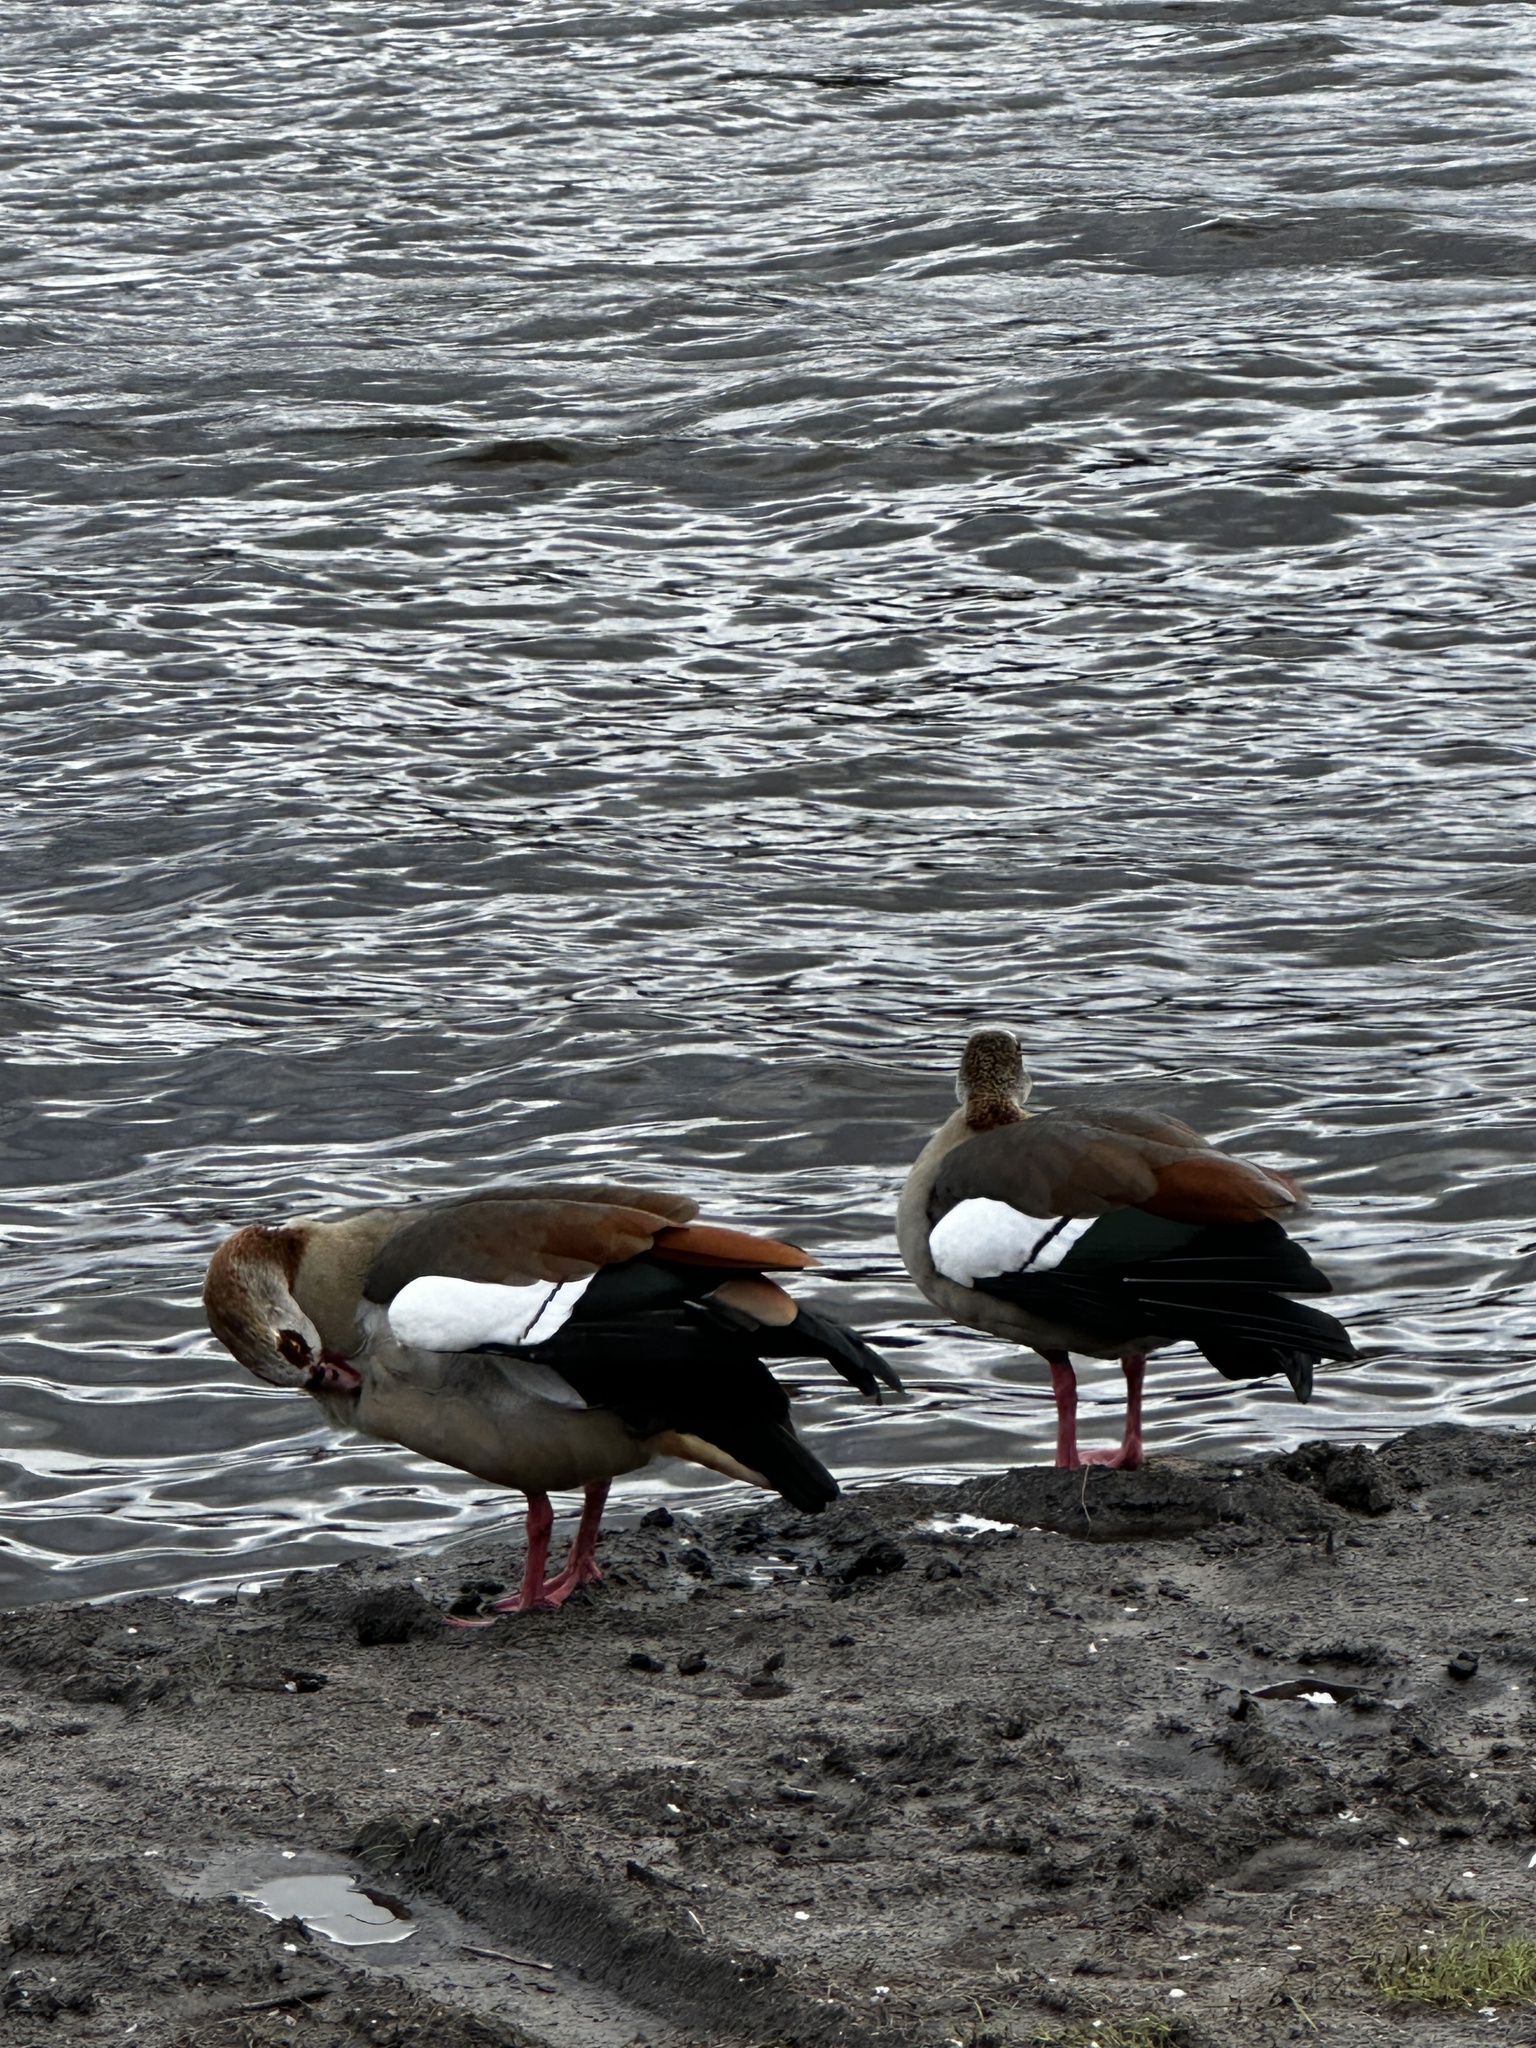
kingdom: Animalia
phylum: Chordata
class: Aves
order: Anseriformes
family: Anatidae
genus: Alopochen
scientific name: Alopochen aegyptiaca
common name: Egyptian goose
